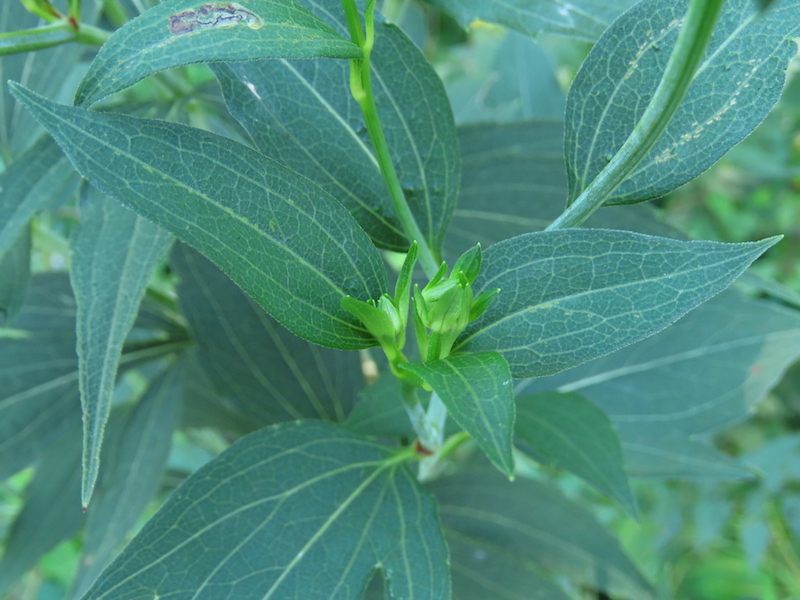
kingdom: Animalia
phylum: Arthropoda
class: Insecta
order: Diptera
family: Cecidomyiidae
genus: Asphondylia
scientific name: Asphondylia rudbeckiaeconspicua
